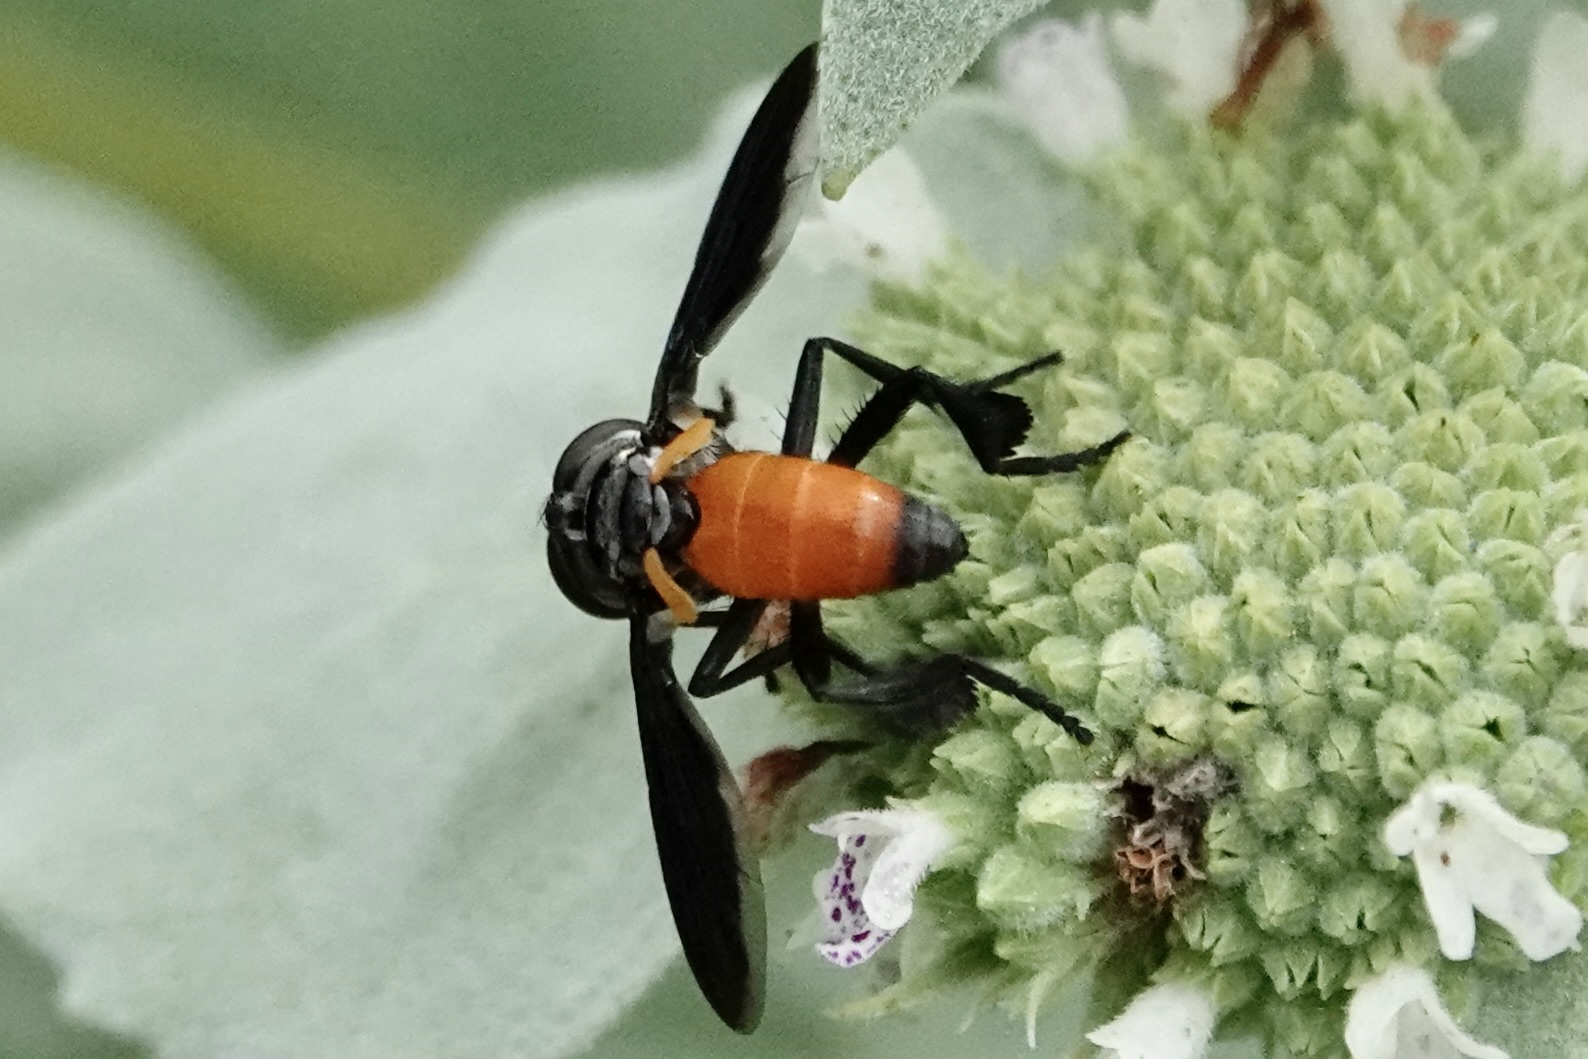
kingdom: Animalia
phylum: Arthropoda
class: Insecta
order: Diptera
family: Tachinidae
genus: Trichopoda
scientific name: Trichopoda pennipes
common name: Tachinid fly
